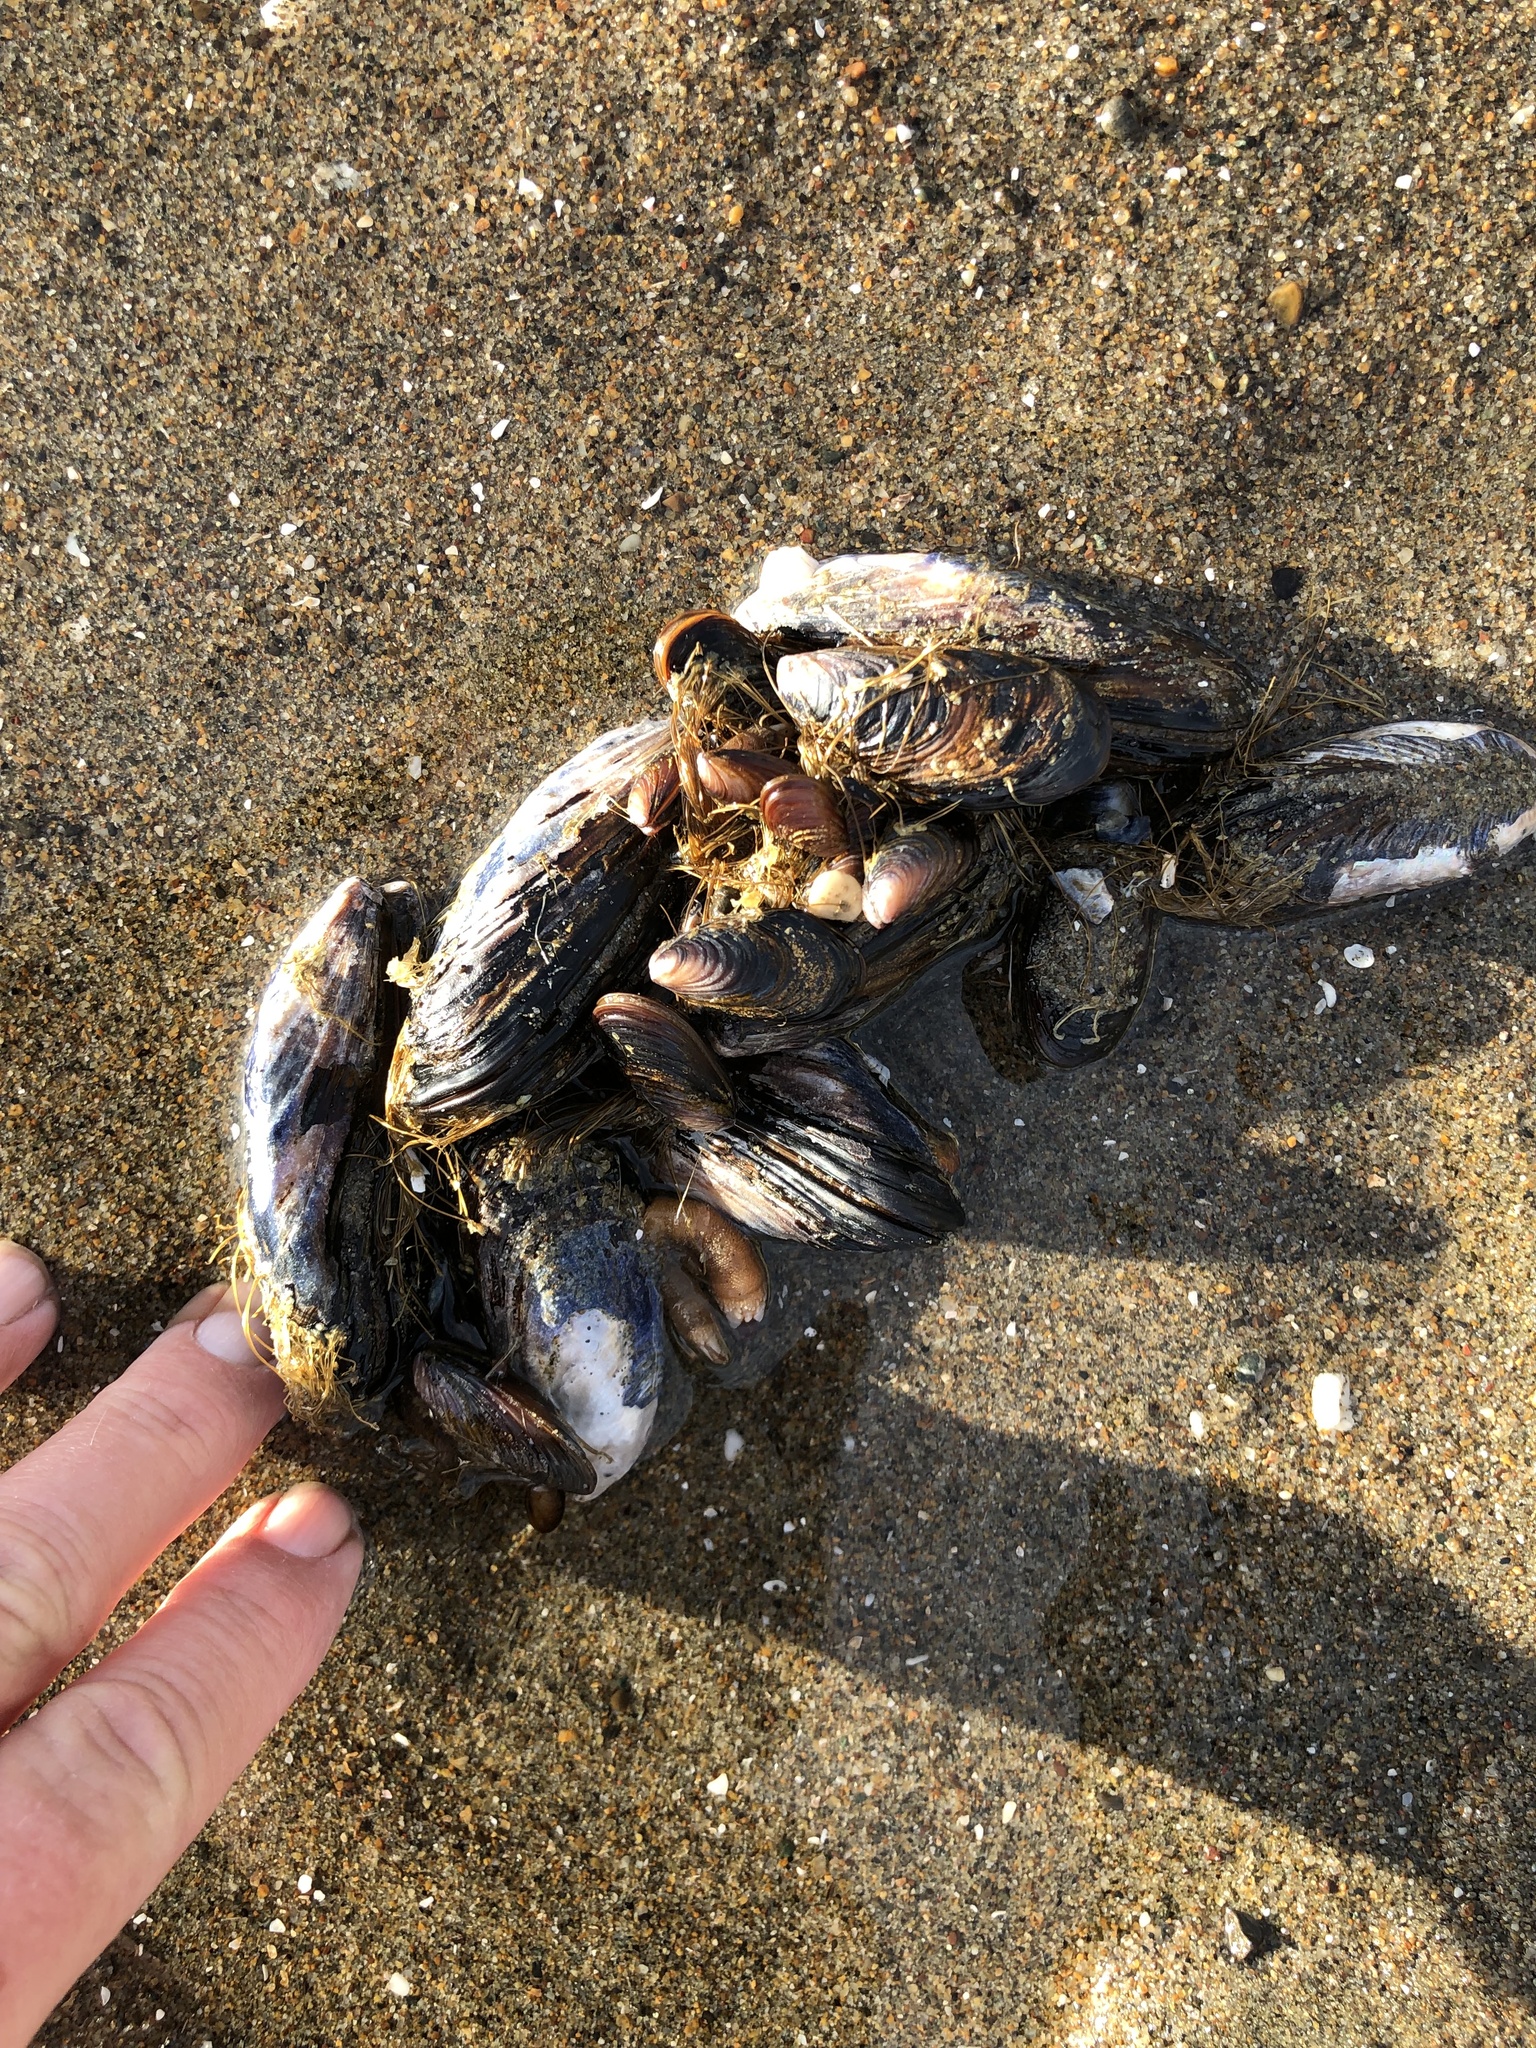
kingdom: Animalia
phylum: Mollusca
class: Bivalvia
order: Mytilida
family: Mytilidae
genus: Mytilus
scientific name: Mytilus californianus
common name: California mussel
